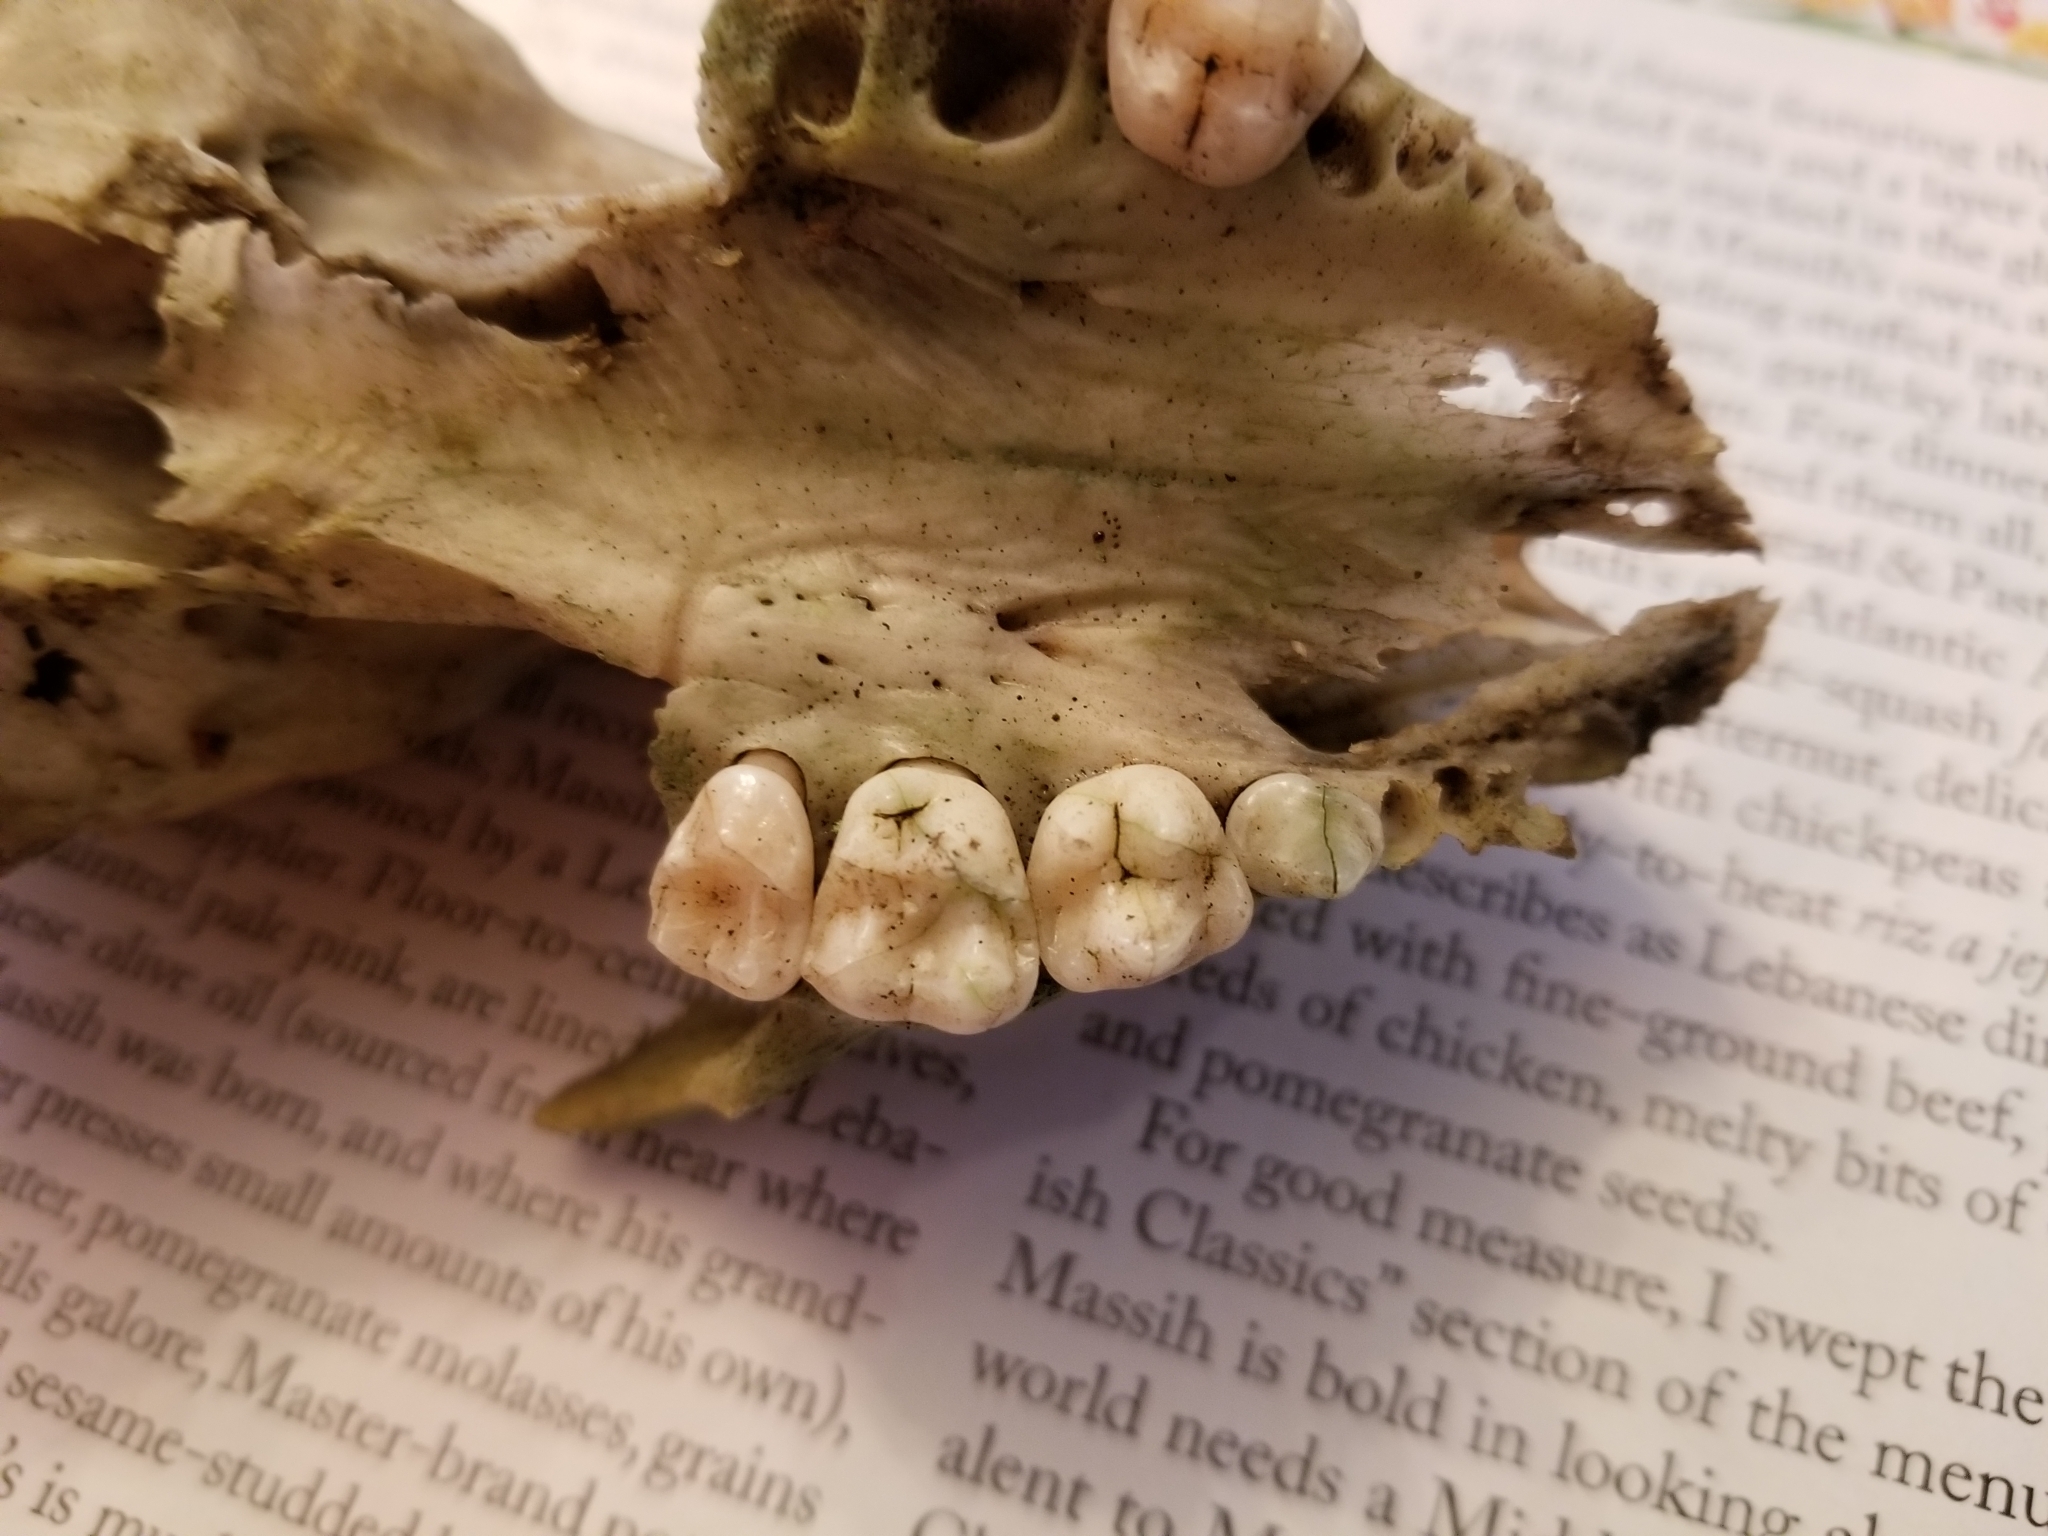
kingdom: Animalia
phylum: Chordata
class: Mammalia
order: Carnivora
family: Procyonidae
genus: Procyon
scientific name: Procyon lotor
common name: Raccoon
